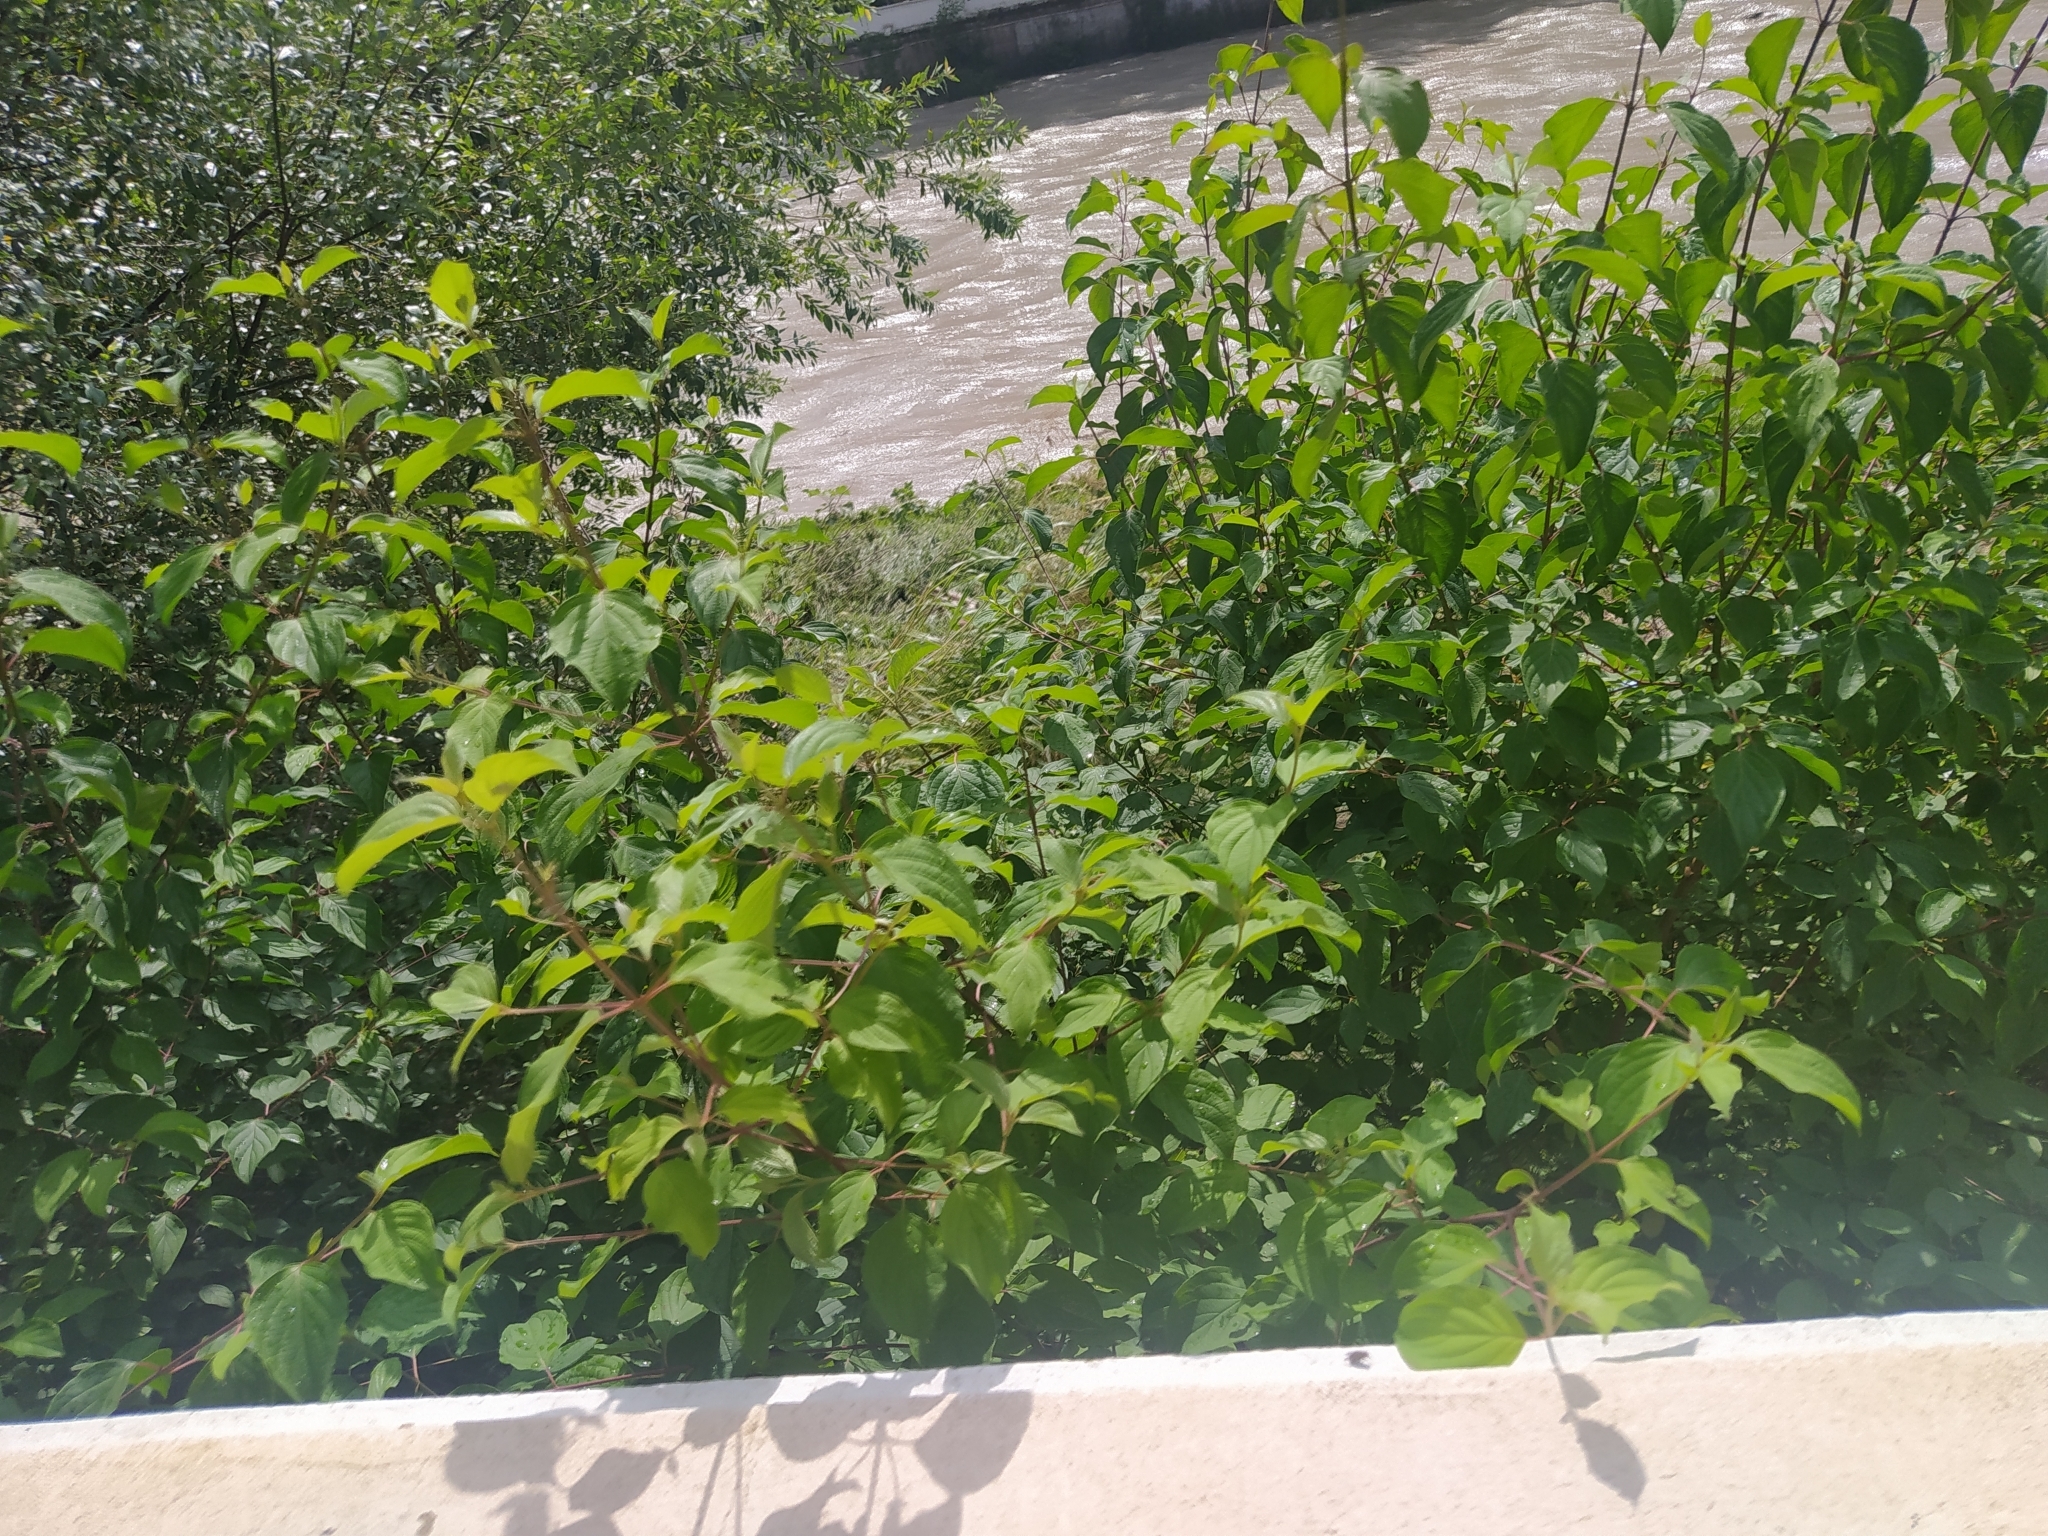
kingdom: Plantae
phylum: Tracheophyta
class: Magnoliopsida
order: Cornales
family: Cornaceae
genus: Cornus
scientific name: Cornus sanguinea
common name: Dogwood
